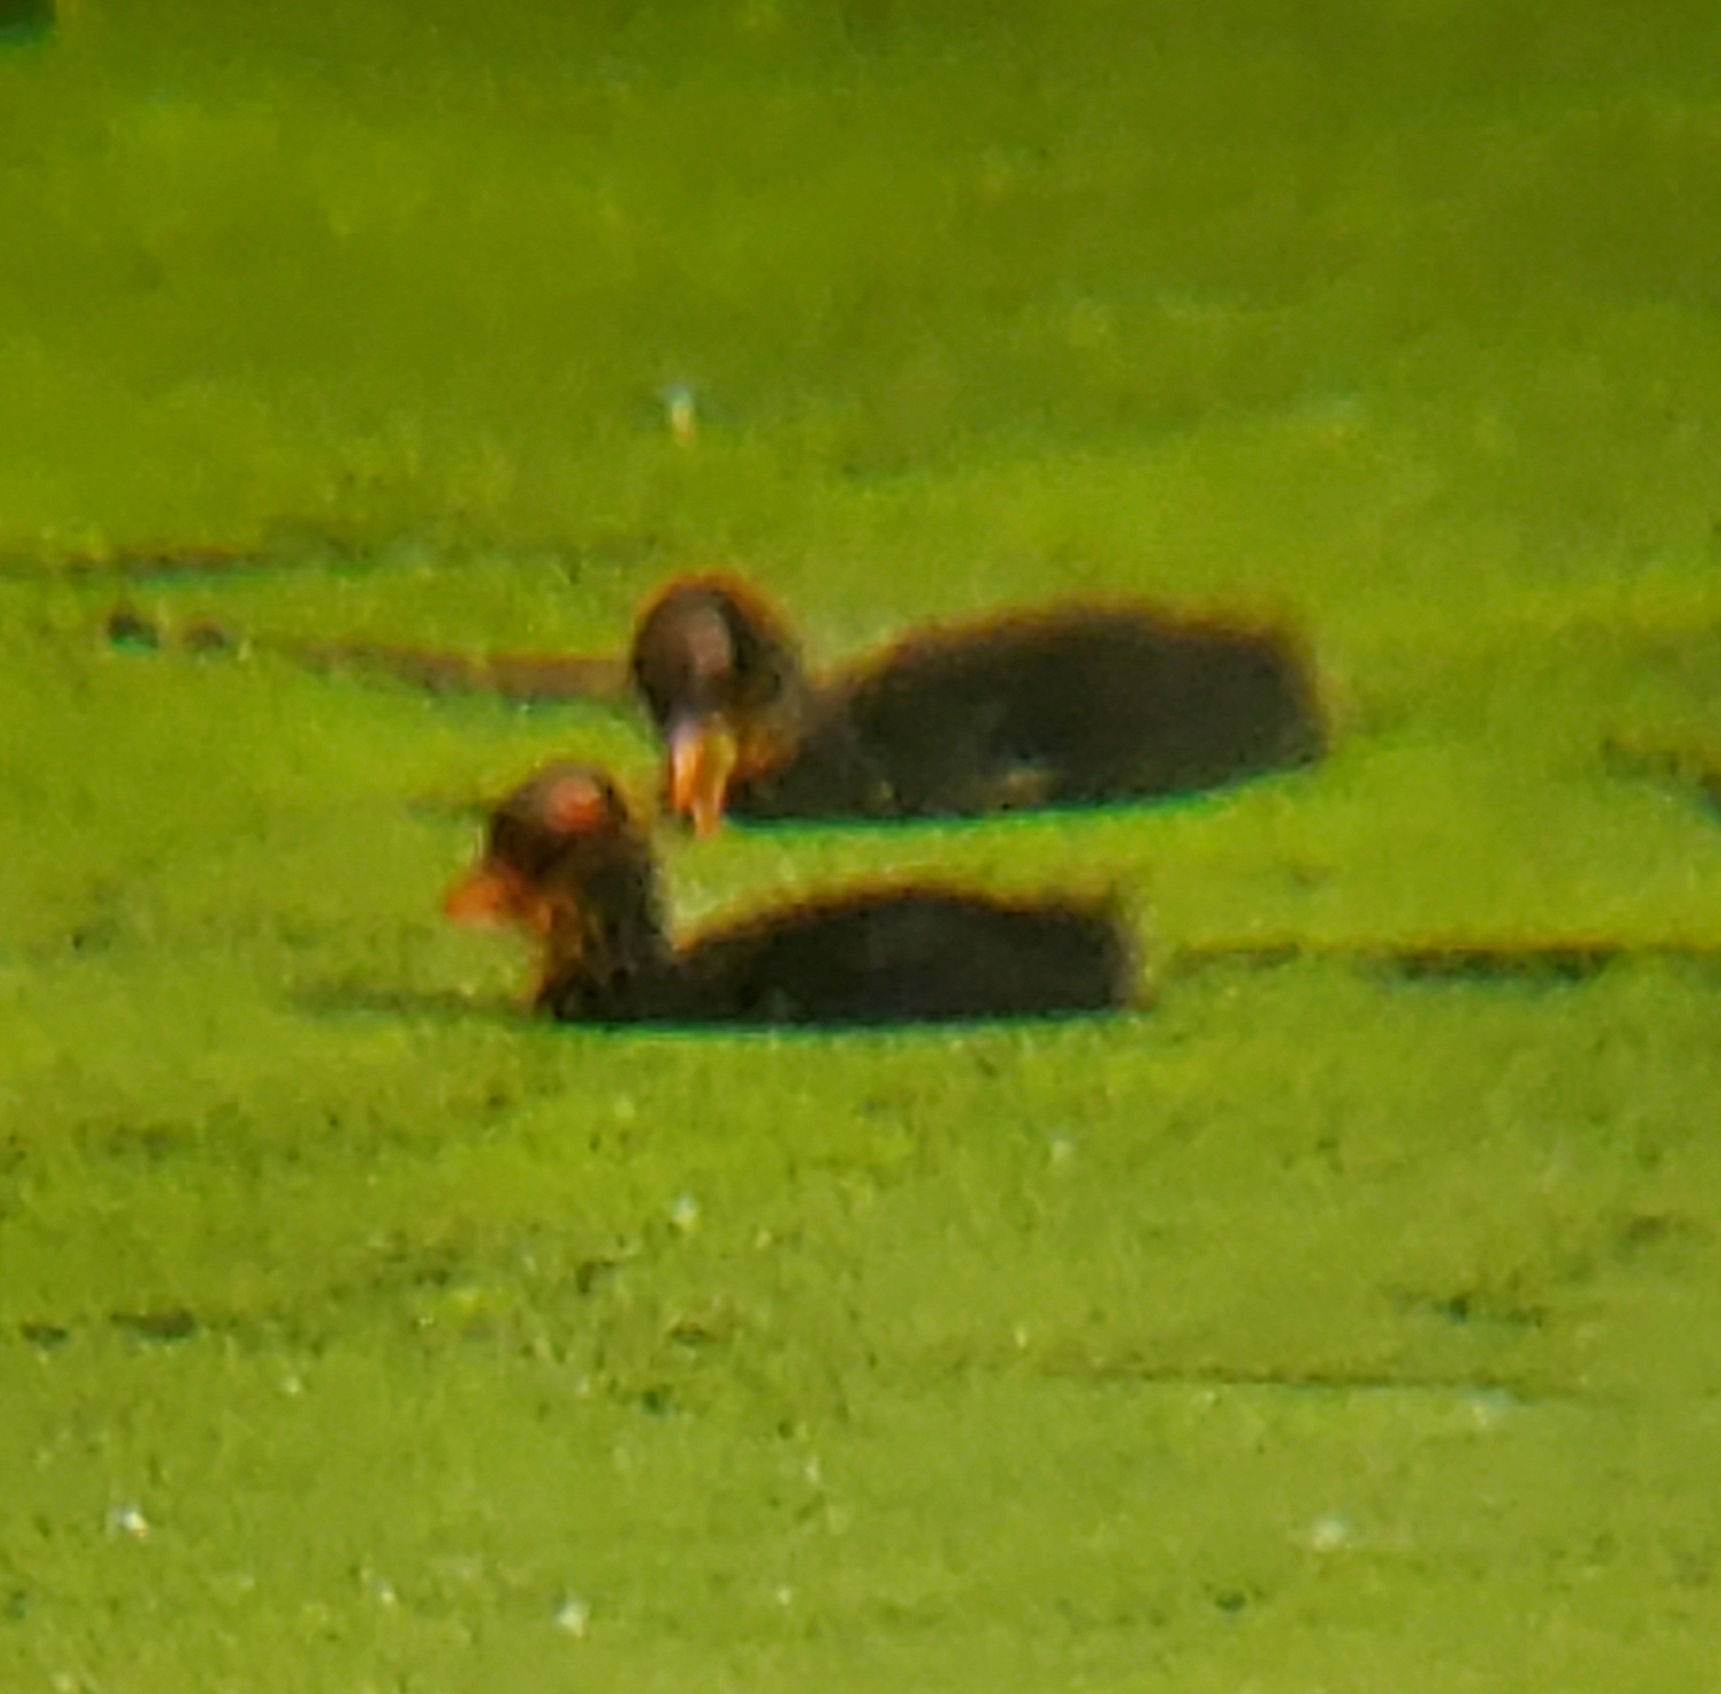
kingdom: Animalia
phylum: Chordata
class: Aves
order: Gruiformes
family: Rallidae
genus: Fulica
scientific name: Fulica americana
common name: American coot
